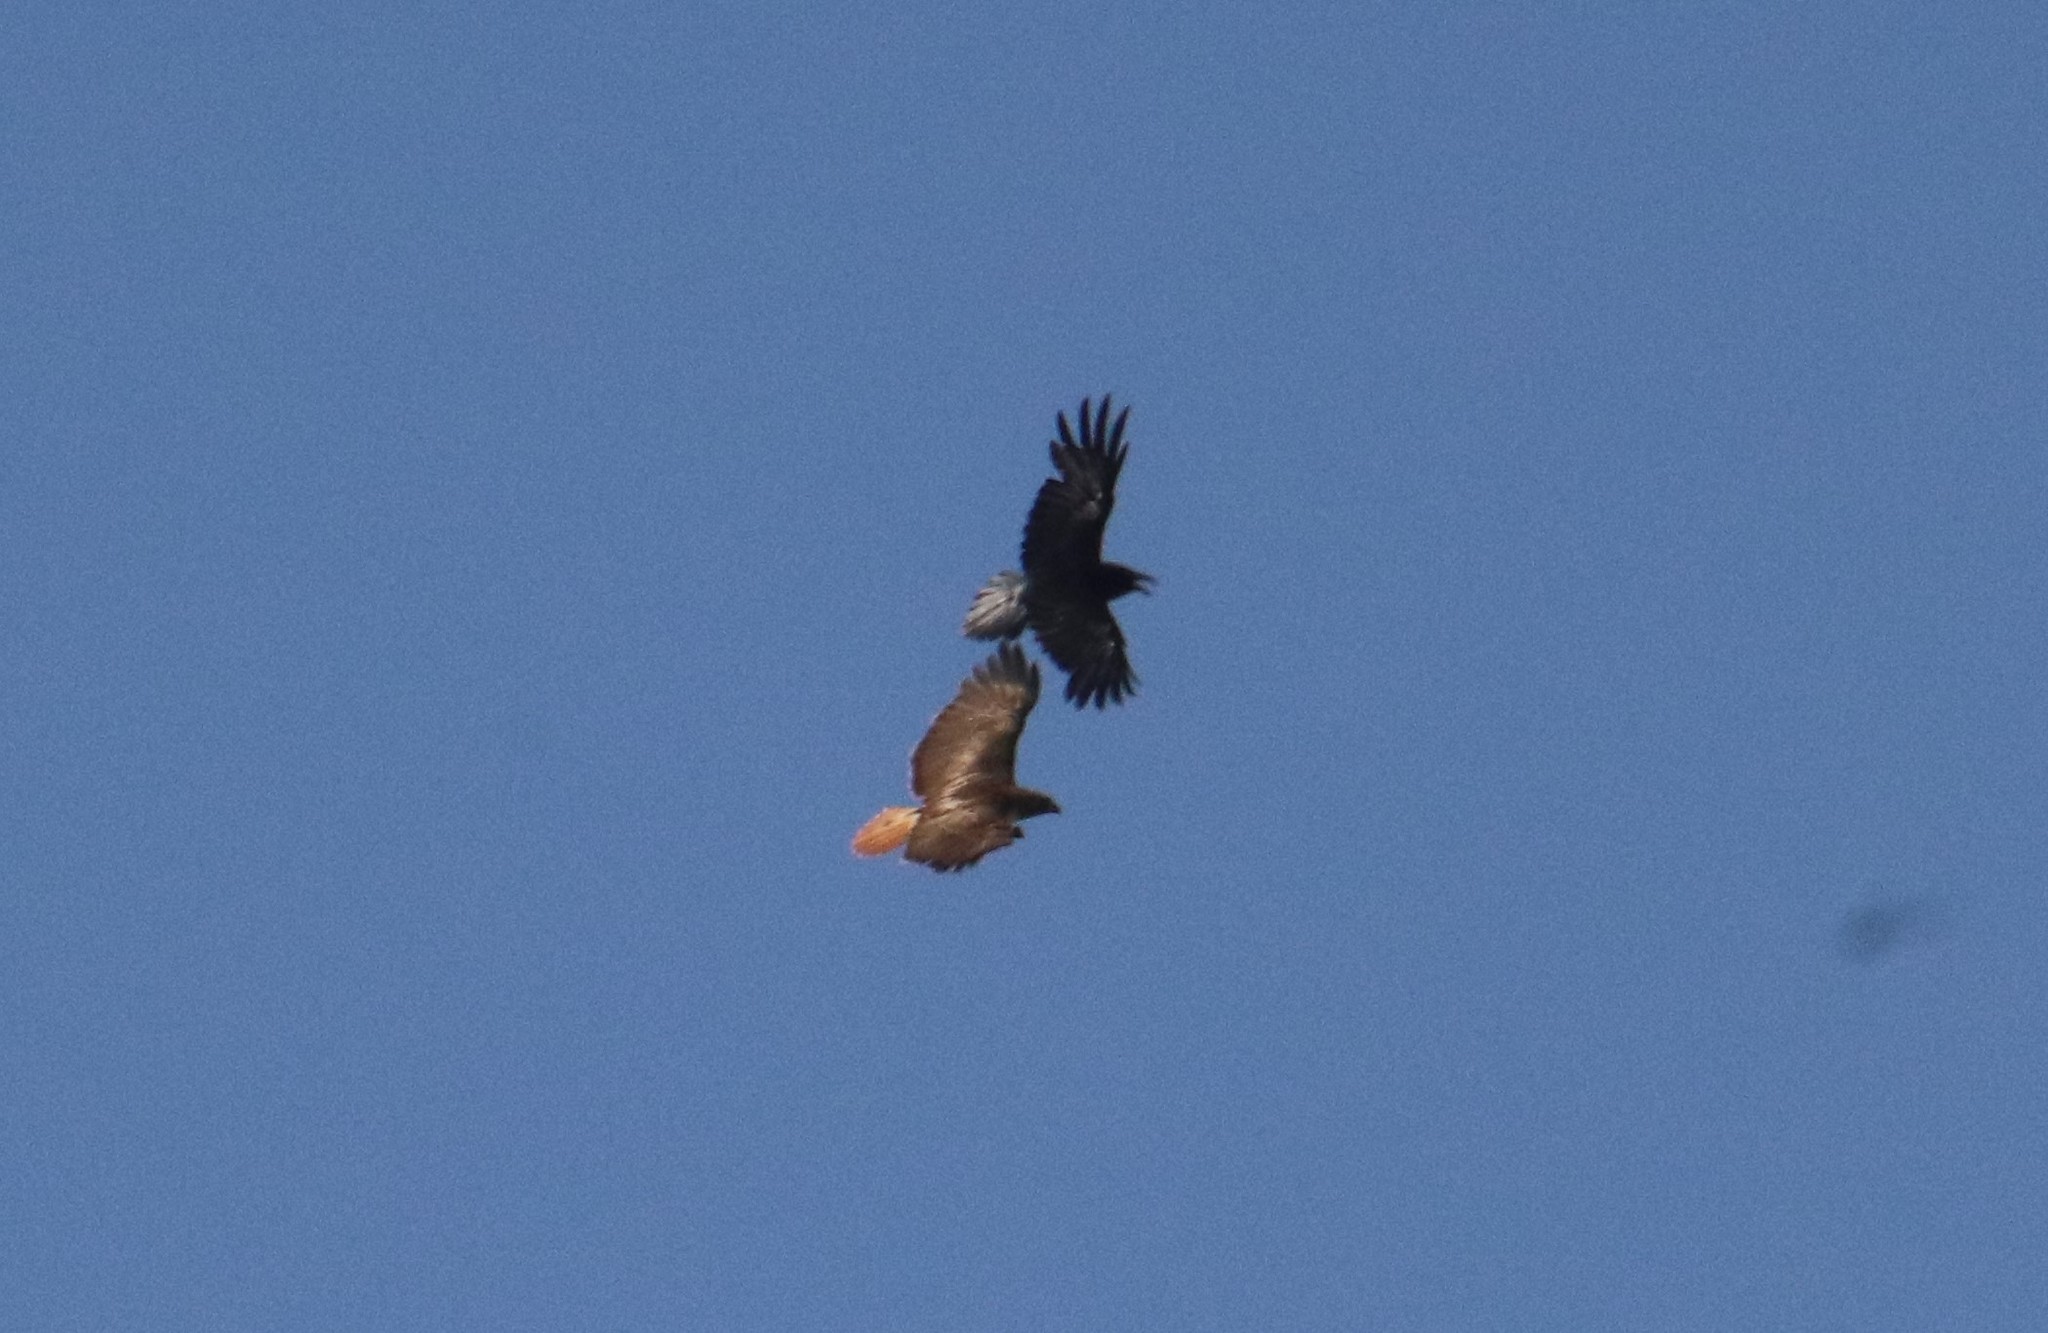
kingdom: Animalia
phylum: Chordata
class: Aves
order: Passeriformes
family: Corvidae
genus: Corvus
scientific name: Corvus corax
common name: Common raven
